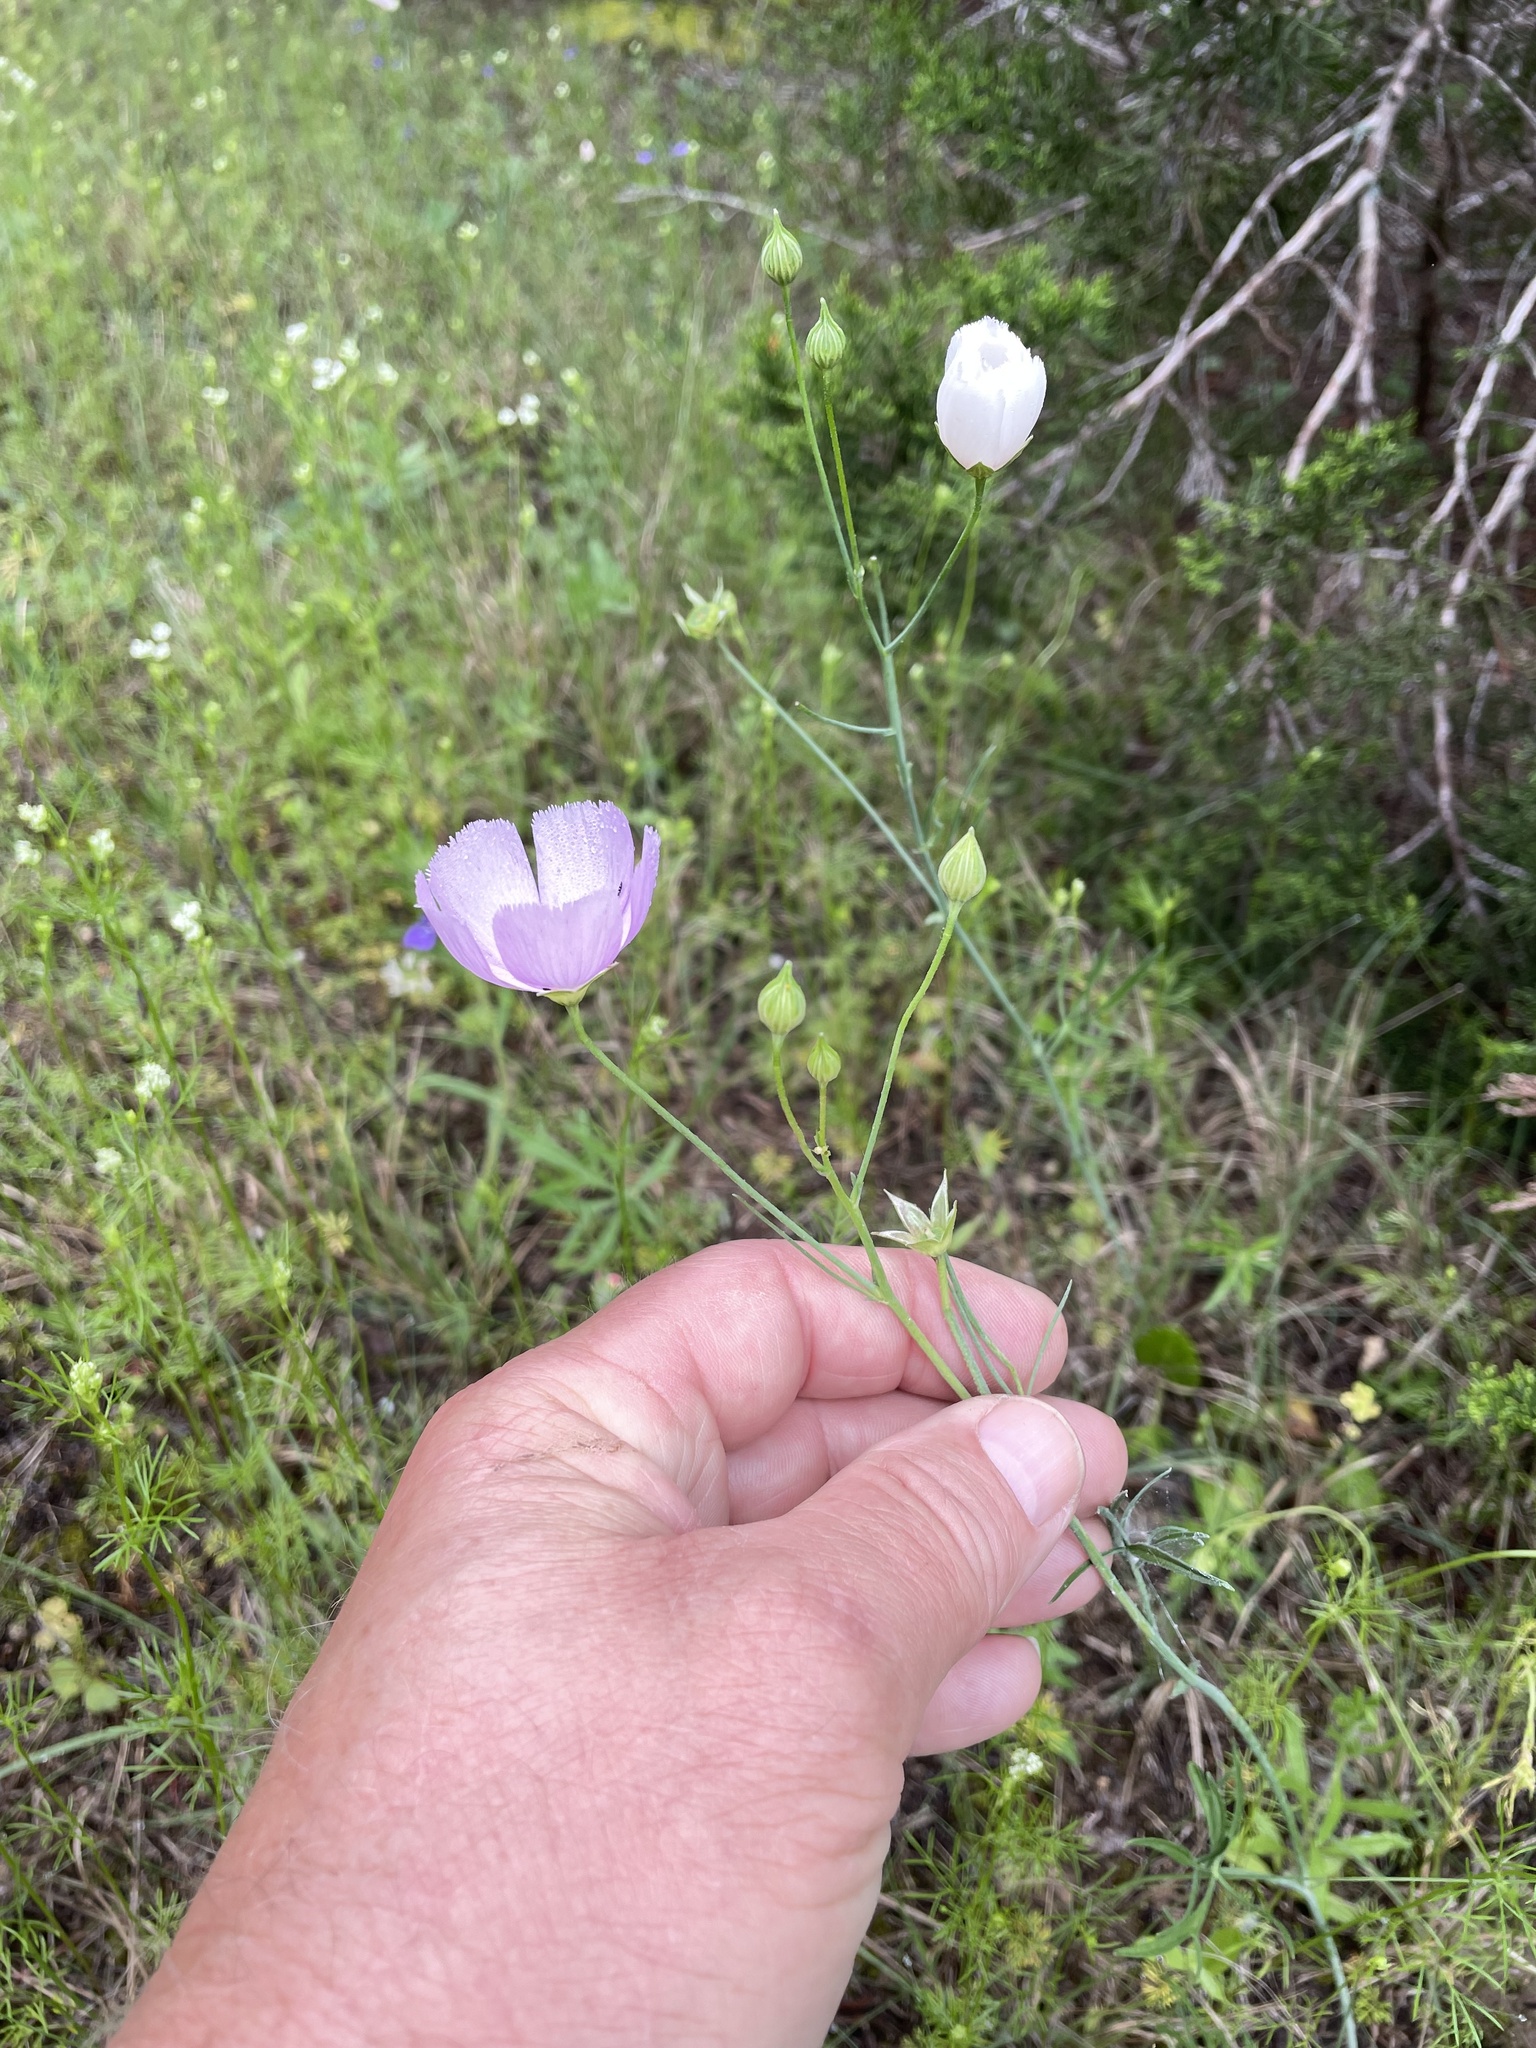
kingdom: Plantae
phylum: Tracheophyta
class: Magnoliopsida
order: Malvales
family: Malvaceae
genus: Callirhoe
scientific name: Callirhoe pedata
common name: Finger poppy-mallow
